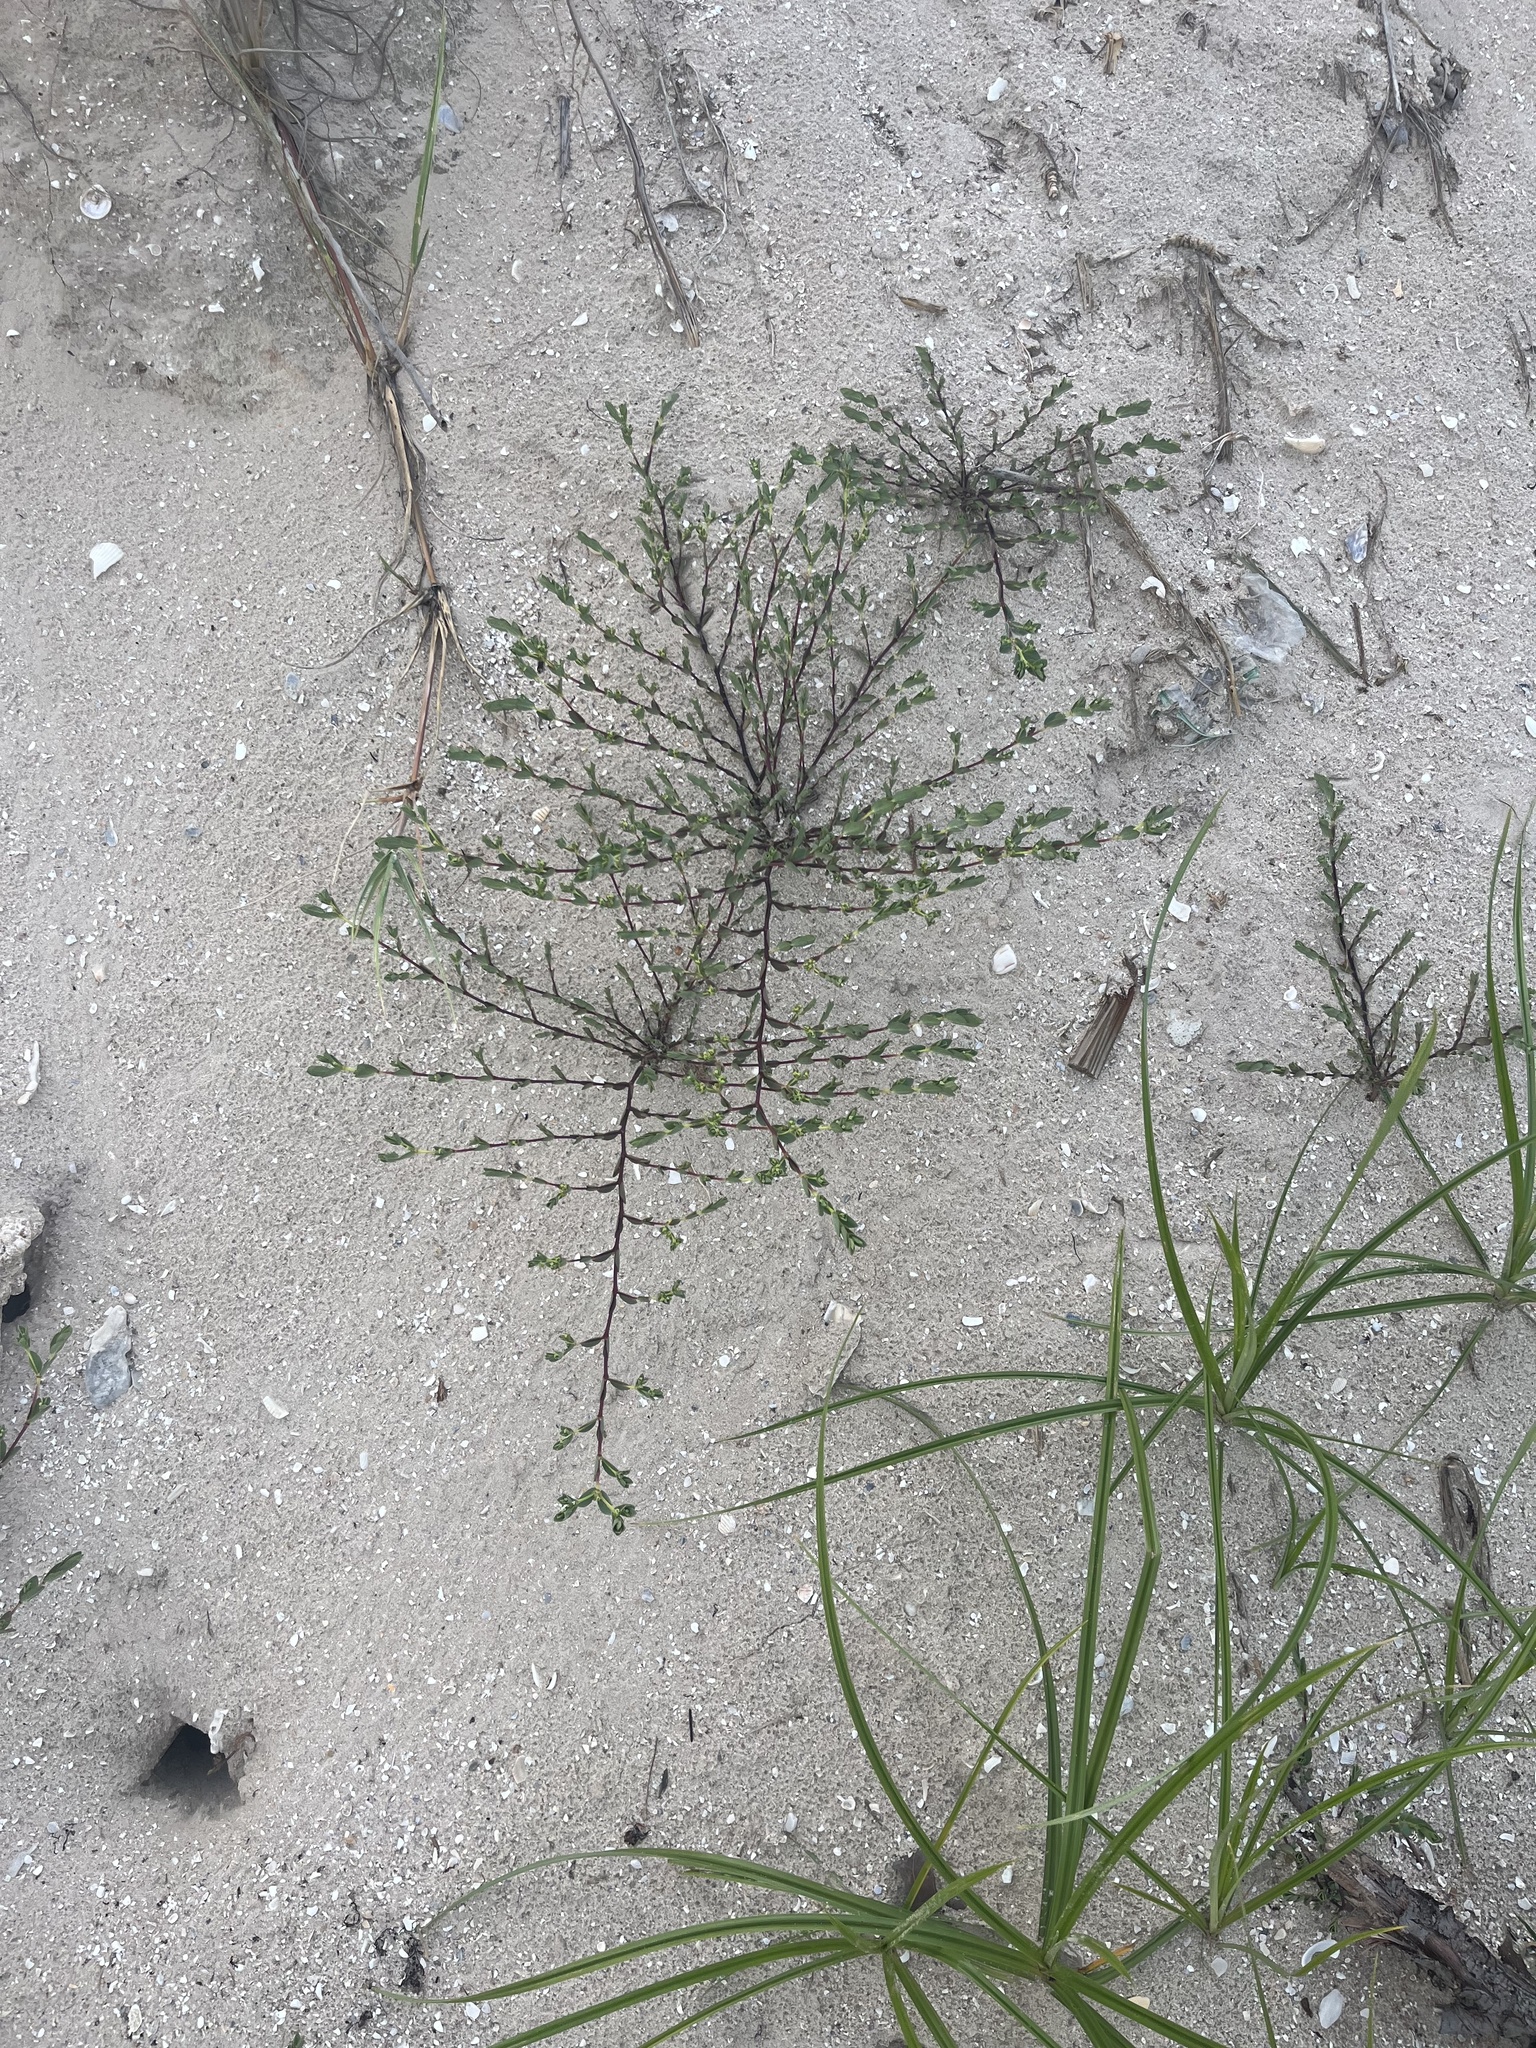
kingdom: Plantae
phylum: Tracheophyta
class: Magnoliopsida
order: Malpighiales
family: Euphorbiaceae
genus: Euphorbia
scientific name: Euphorbia mesembryanthemifolia
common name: Coastal beach sandmat
